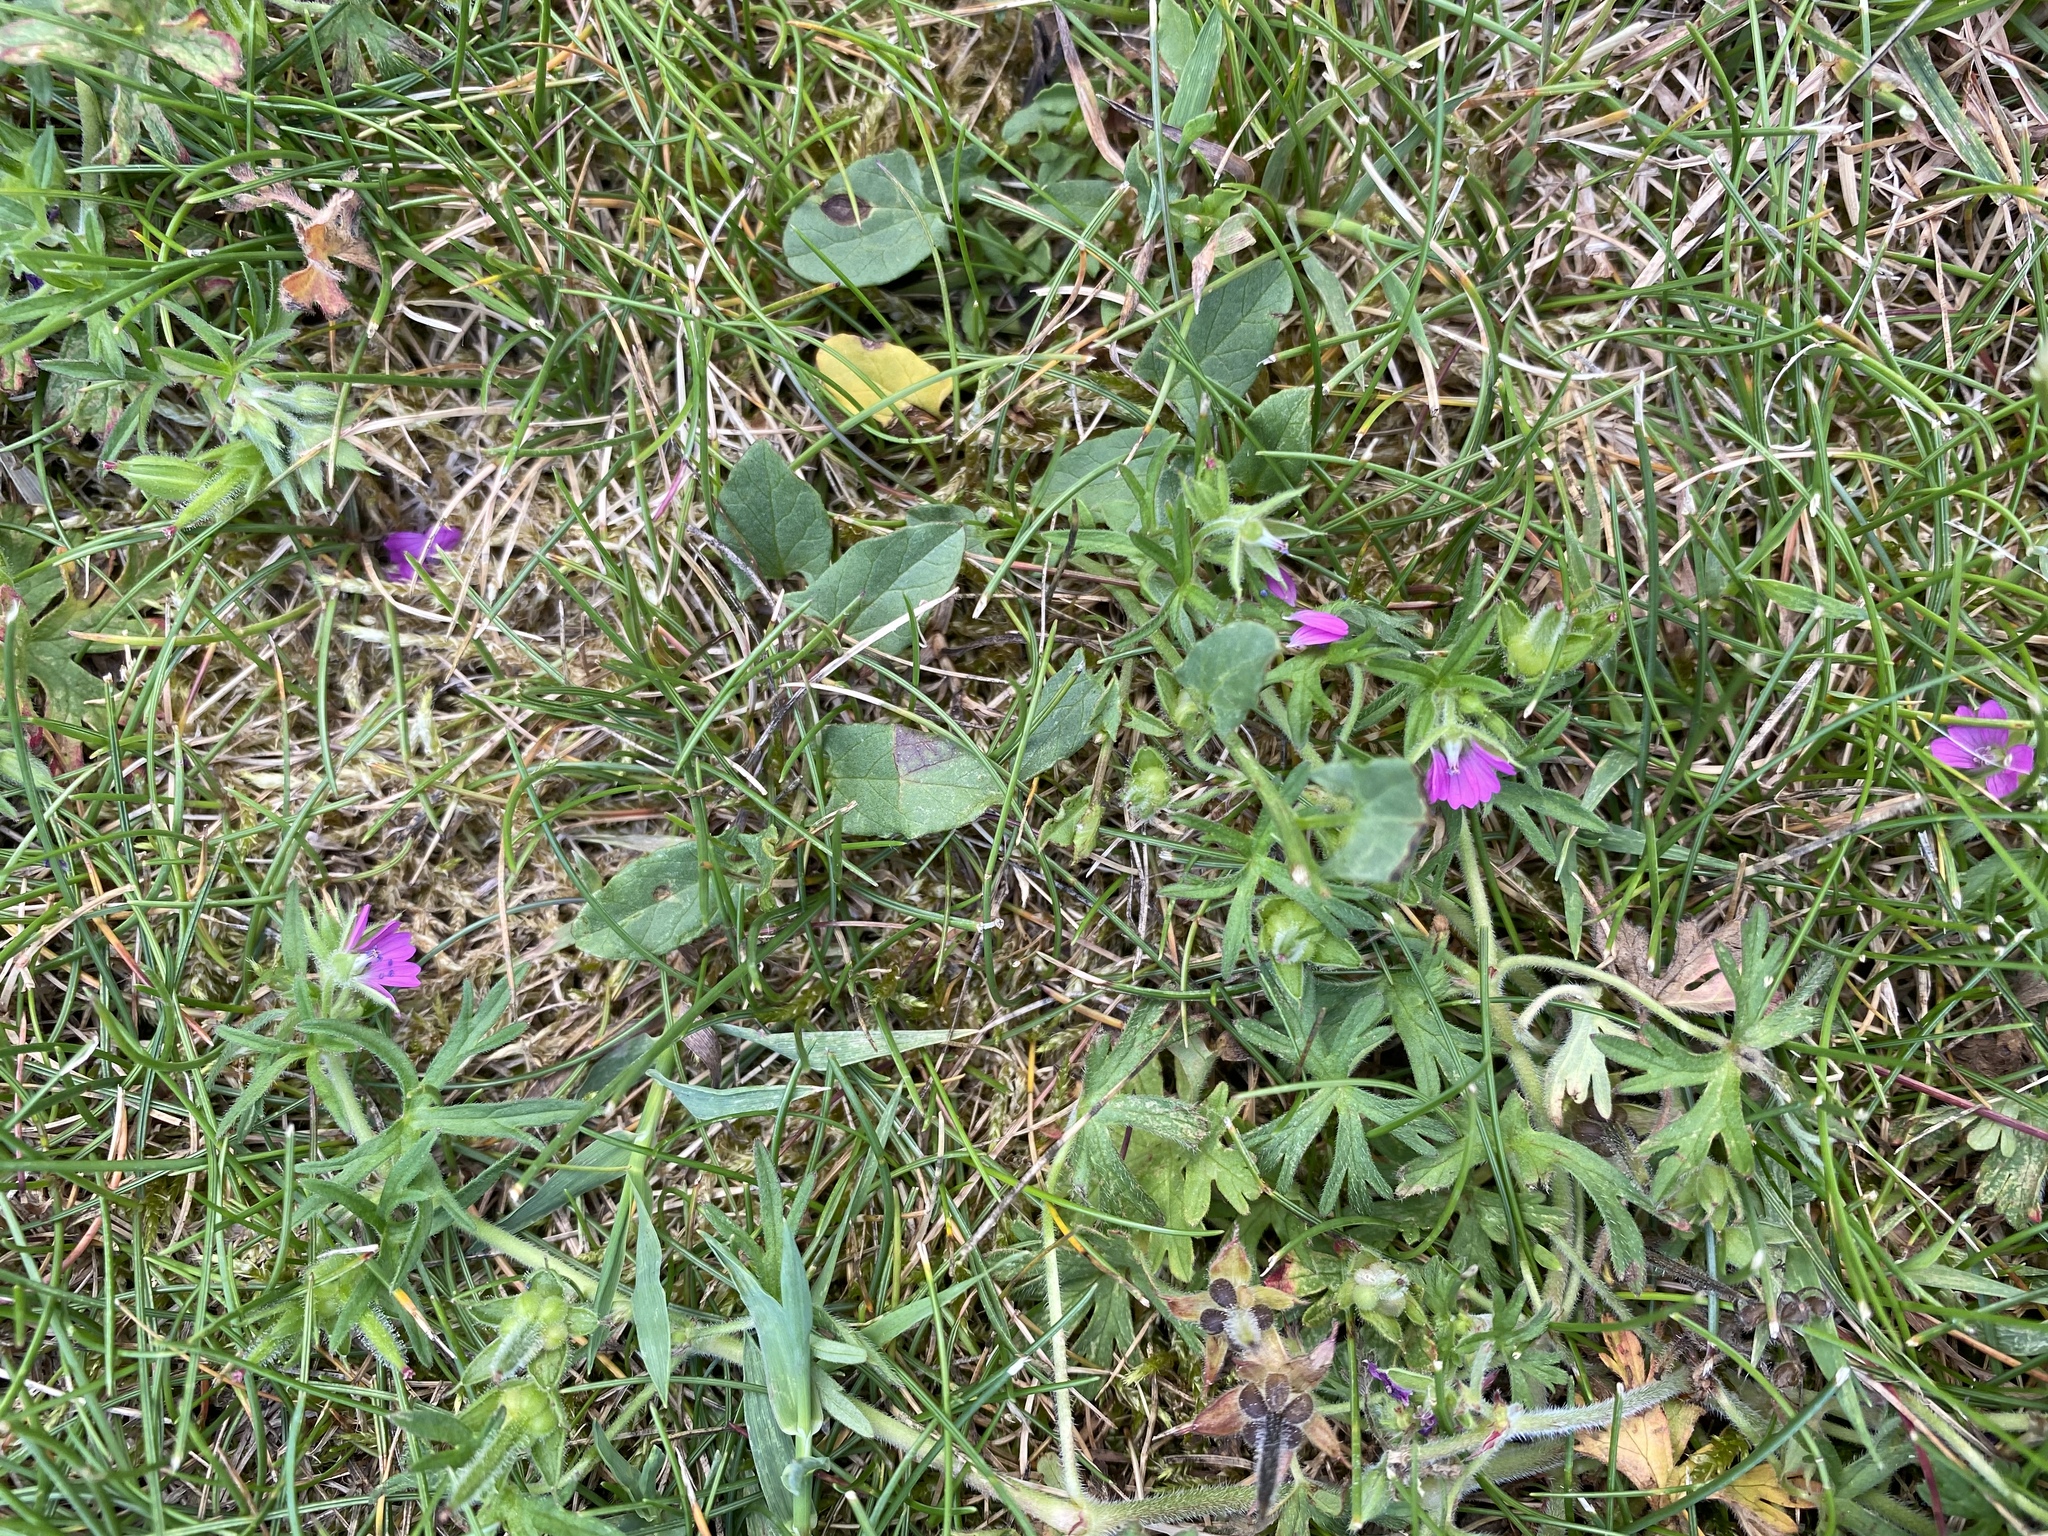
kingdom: Plantae
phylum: Tracheophyta
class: Magnoliopsida
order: Geraniales
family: Geraniaceae
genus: Geranium
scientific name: Geranium dissectum
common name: Cut-leaved crane's-bill
